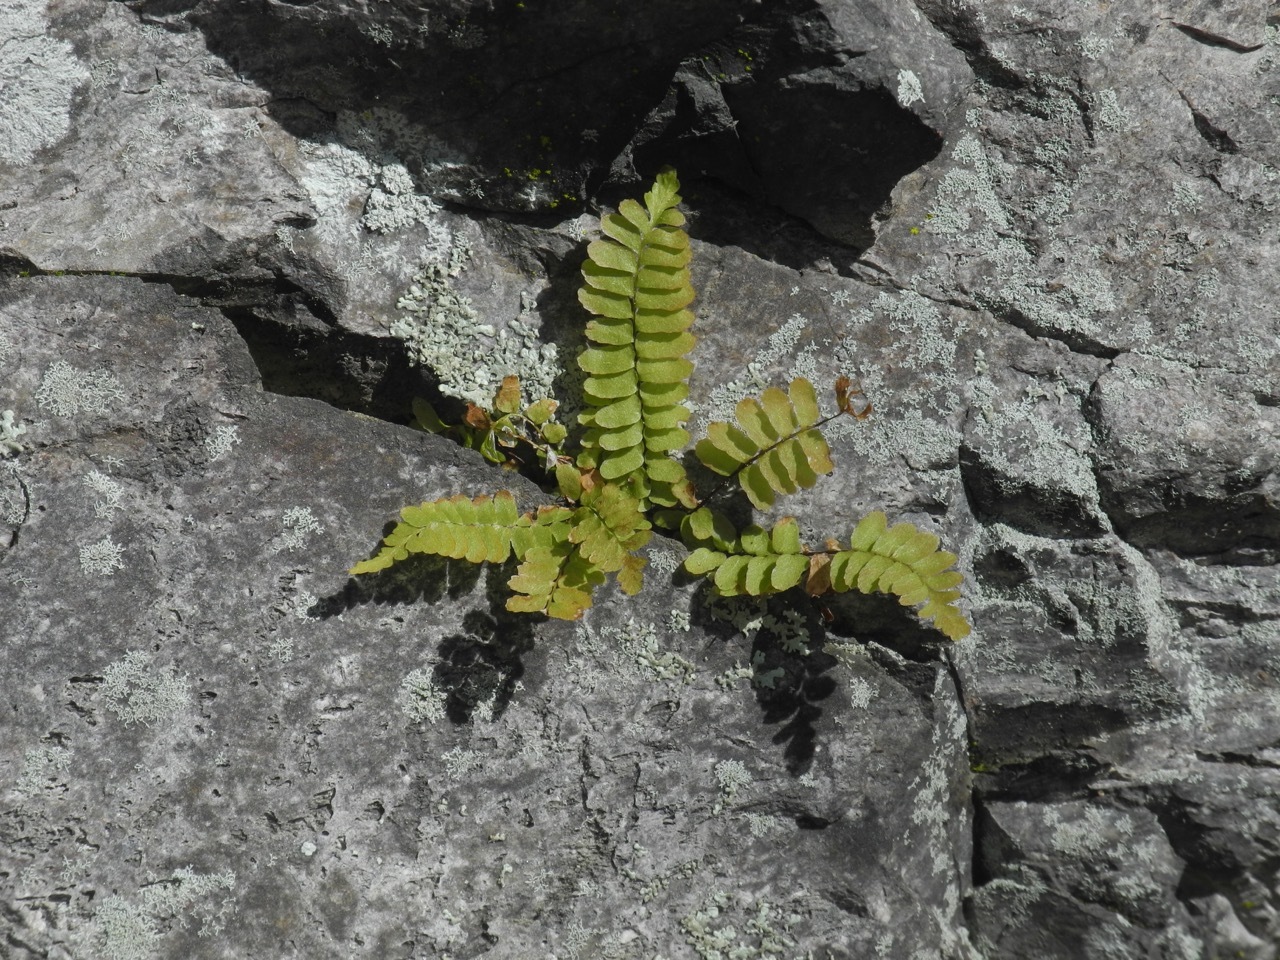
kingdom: Plantae
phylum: Tracheophyta
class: Polypodiopsida
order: Polypodiales
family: Aspleniaceae
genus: Asplenium
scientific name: Asplenium platyneuron
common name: Ebony spleenwort
